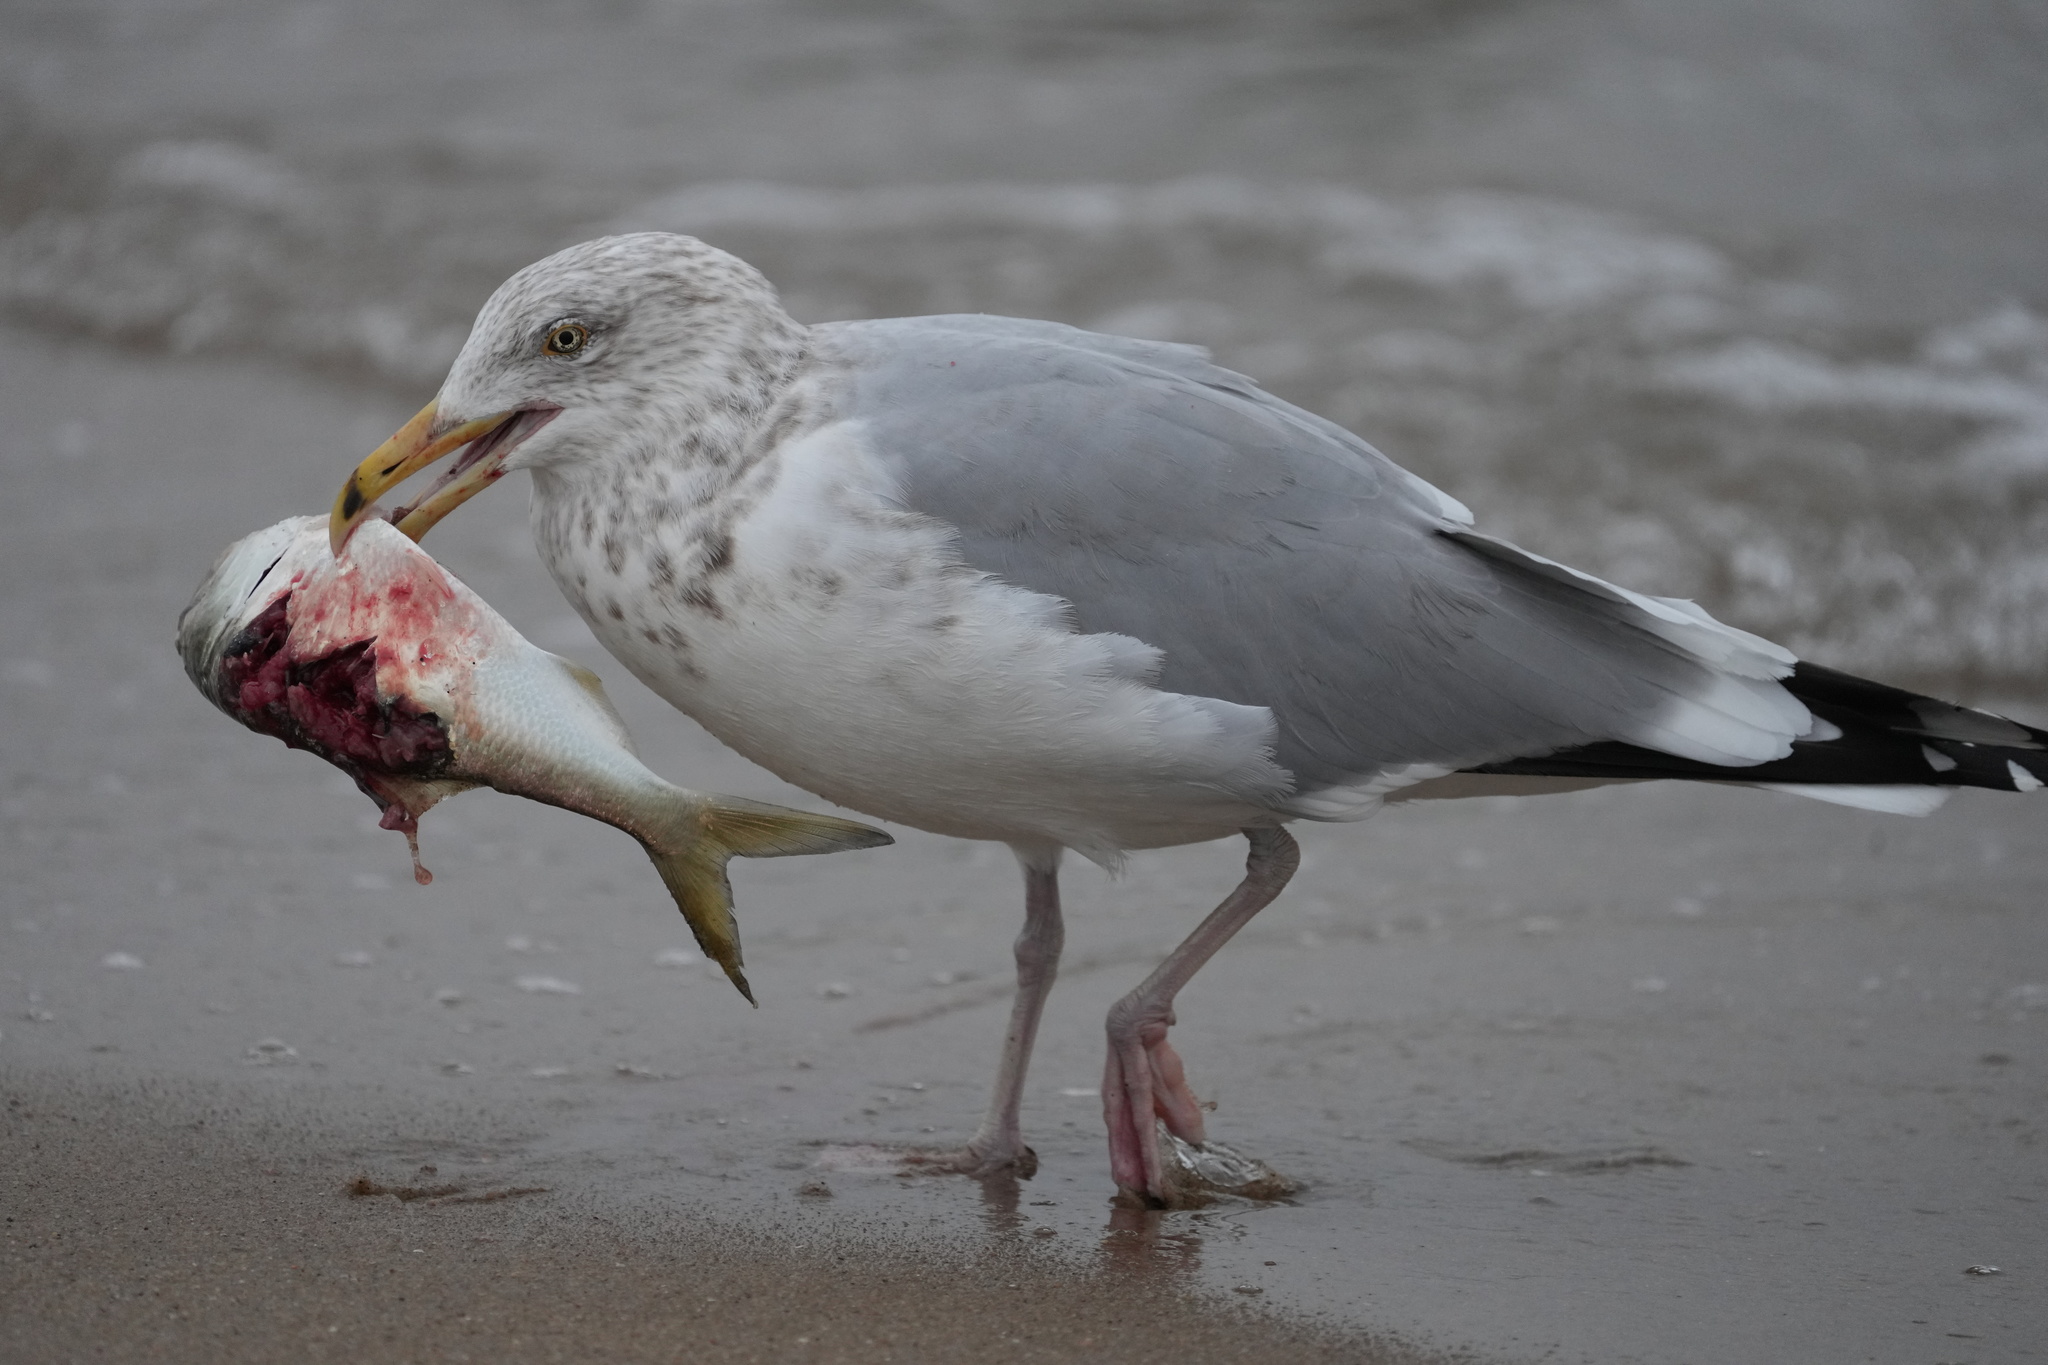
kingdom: Animalia
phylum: Chordata
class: Aves
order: Charadriiformes
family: Laridae
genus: Larus
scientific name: Larus argentatus
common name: Herring gull
